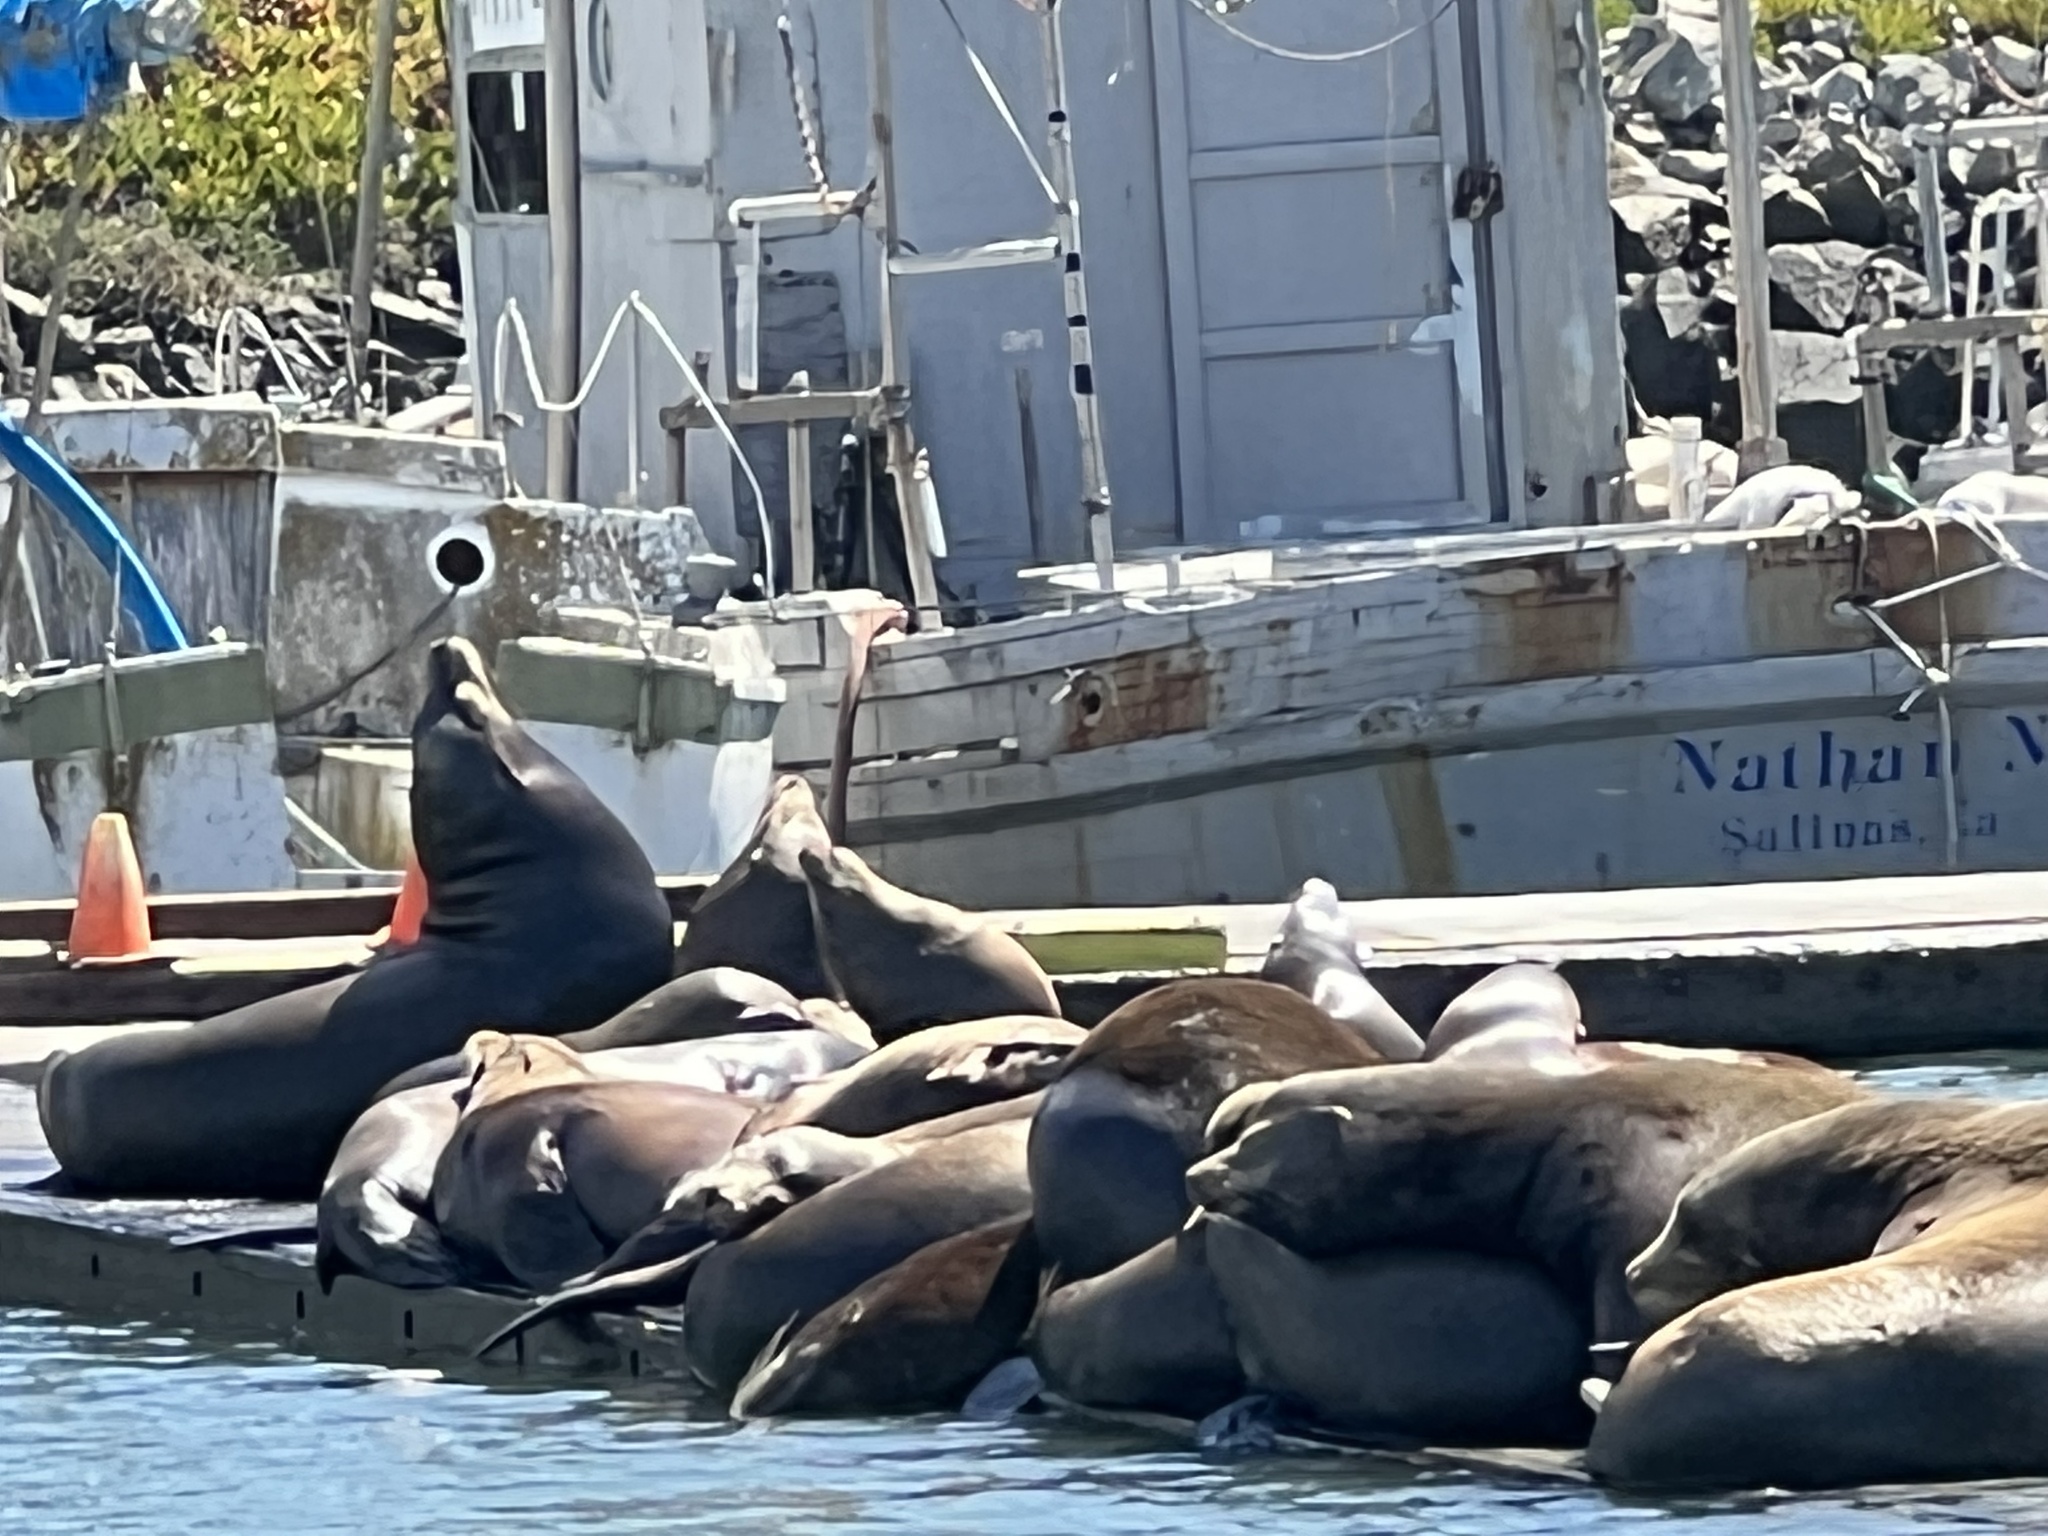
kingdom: Animalia
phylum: Chordata
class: Mammalia
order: Carnivora
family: Otariidae
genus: Zalophus
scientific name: Zalophus californianus
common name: California sea lion
